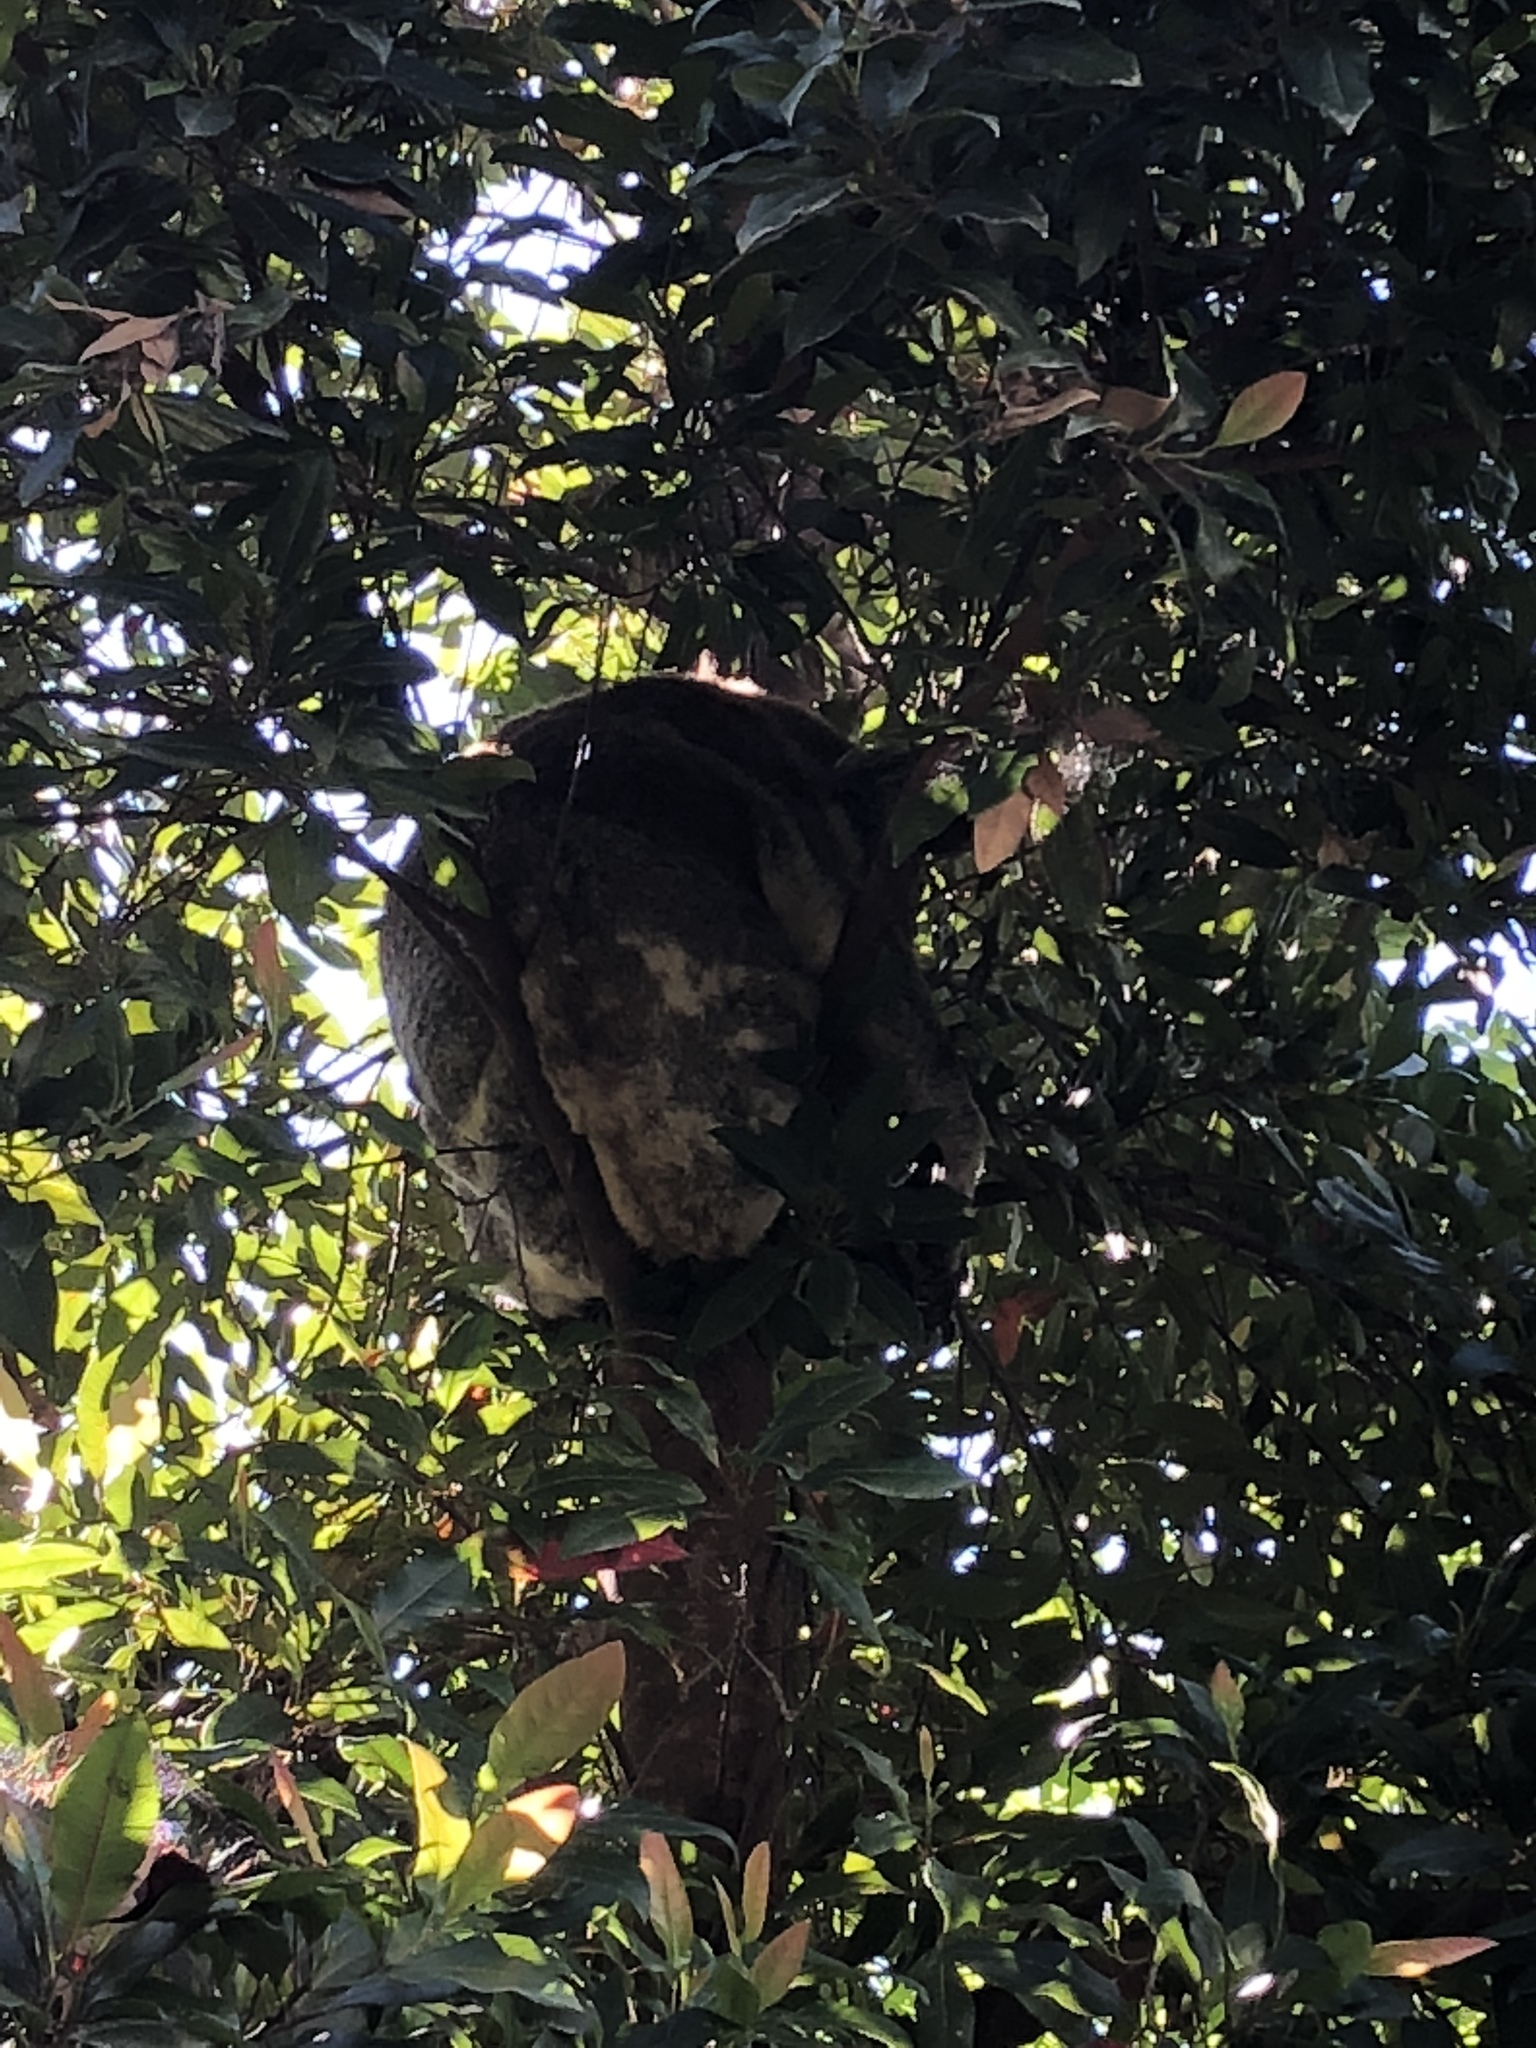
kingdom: Animalia
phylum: Chordata
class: Mammalia
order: Diprotodontia
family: Phascolarctidae
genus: Phascolarctos
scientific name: Phascolarctos cinereus
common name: Koala
